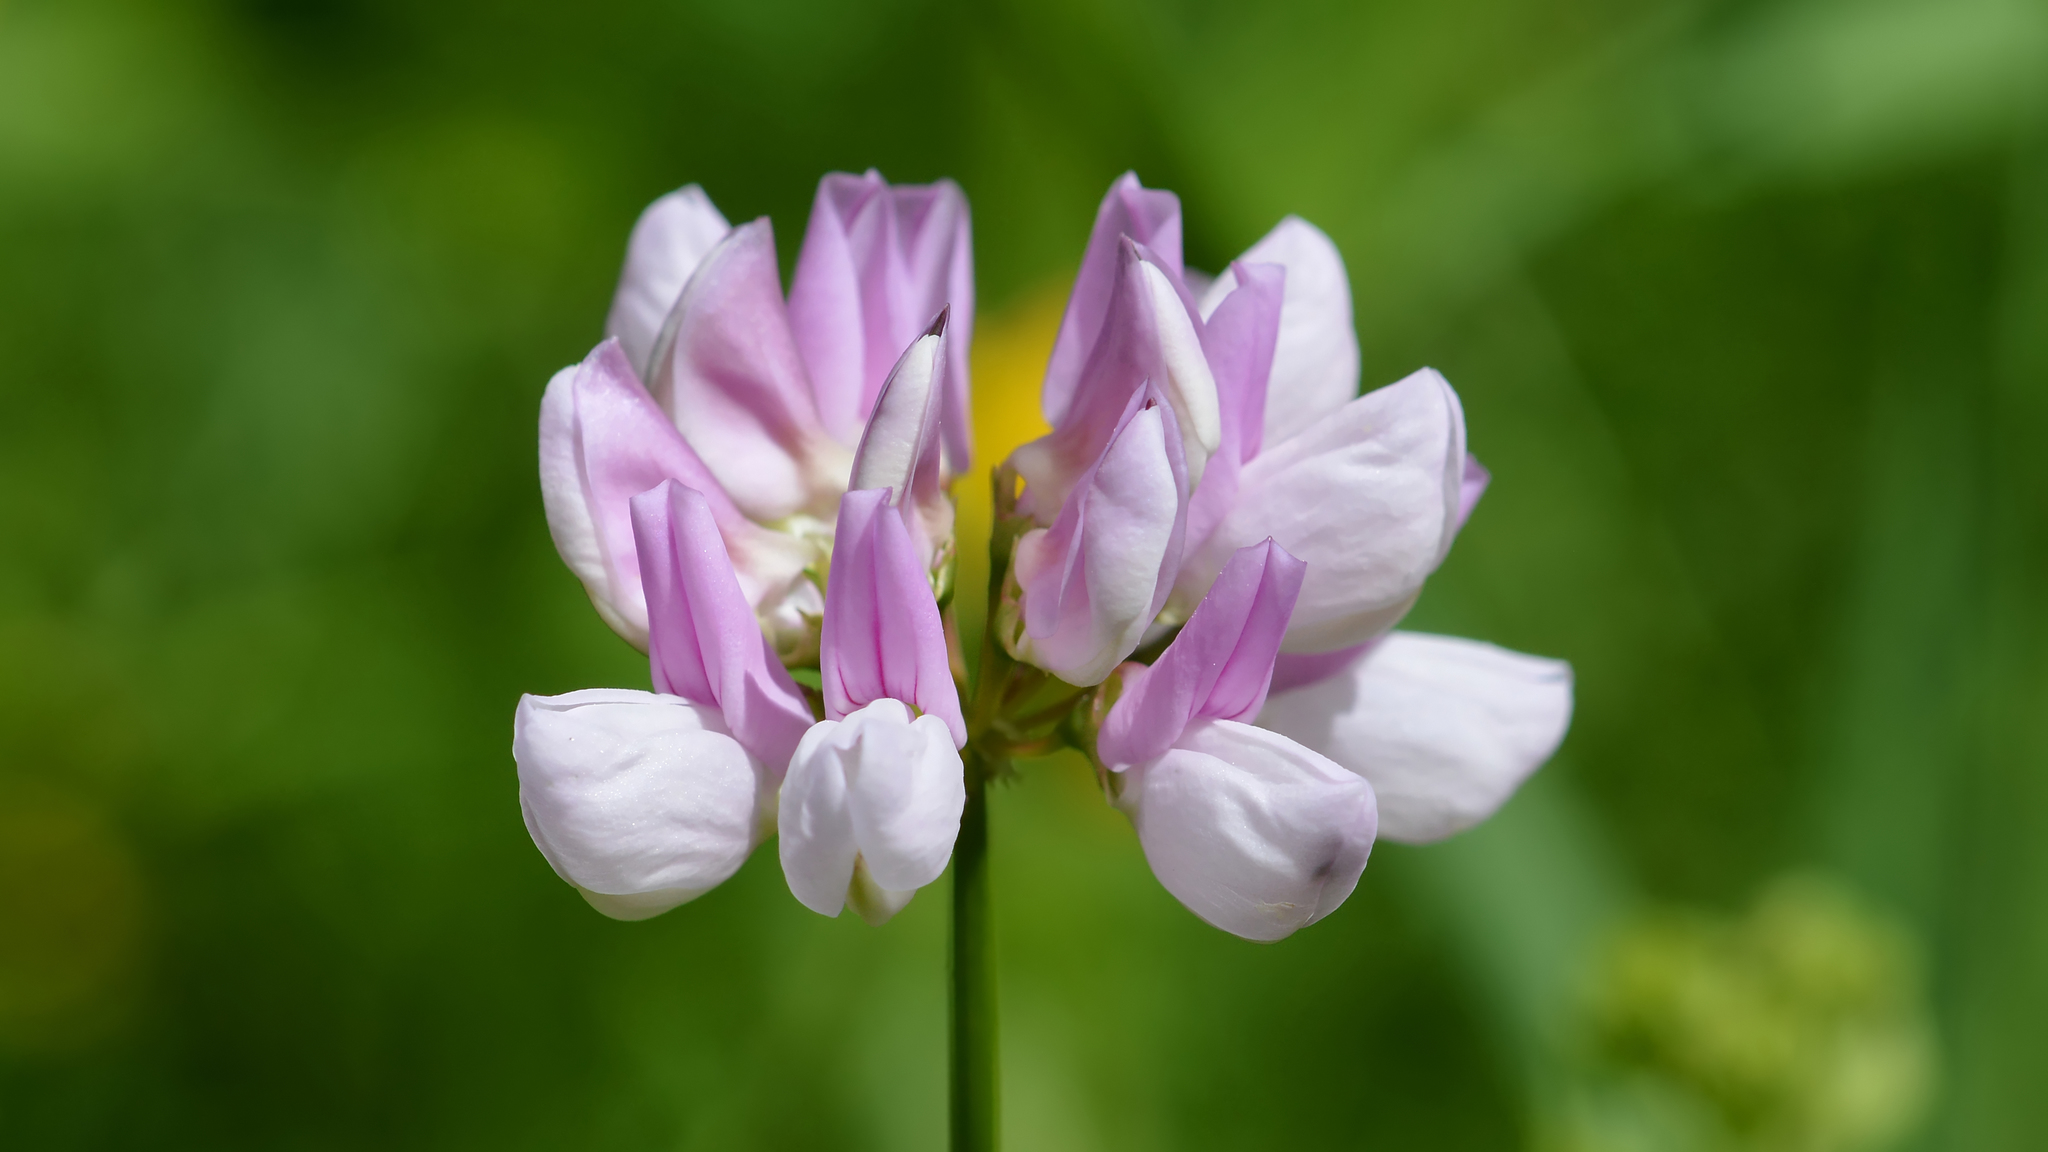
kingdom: Plantae
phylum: Tracheophyta
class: Magnoliopsida
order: Fabales
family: Fabaceae
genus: Coronilla
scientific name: Coronilla varia
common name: Crownvetch
